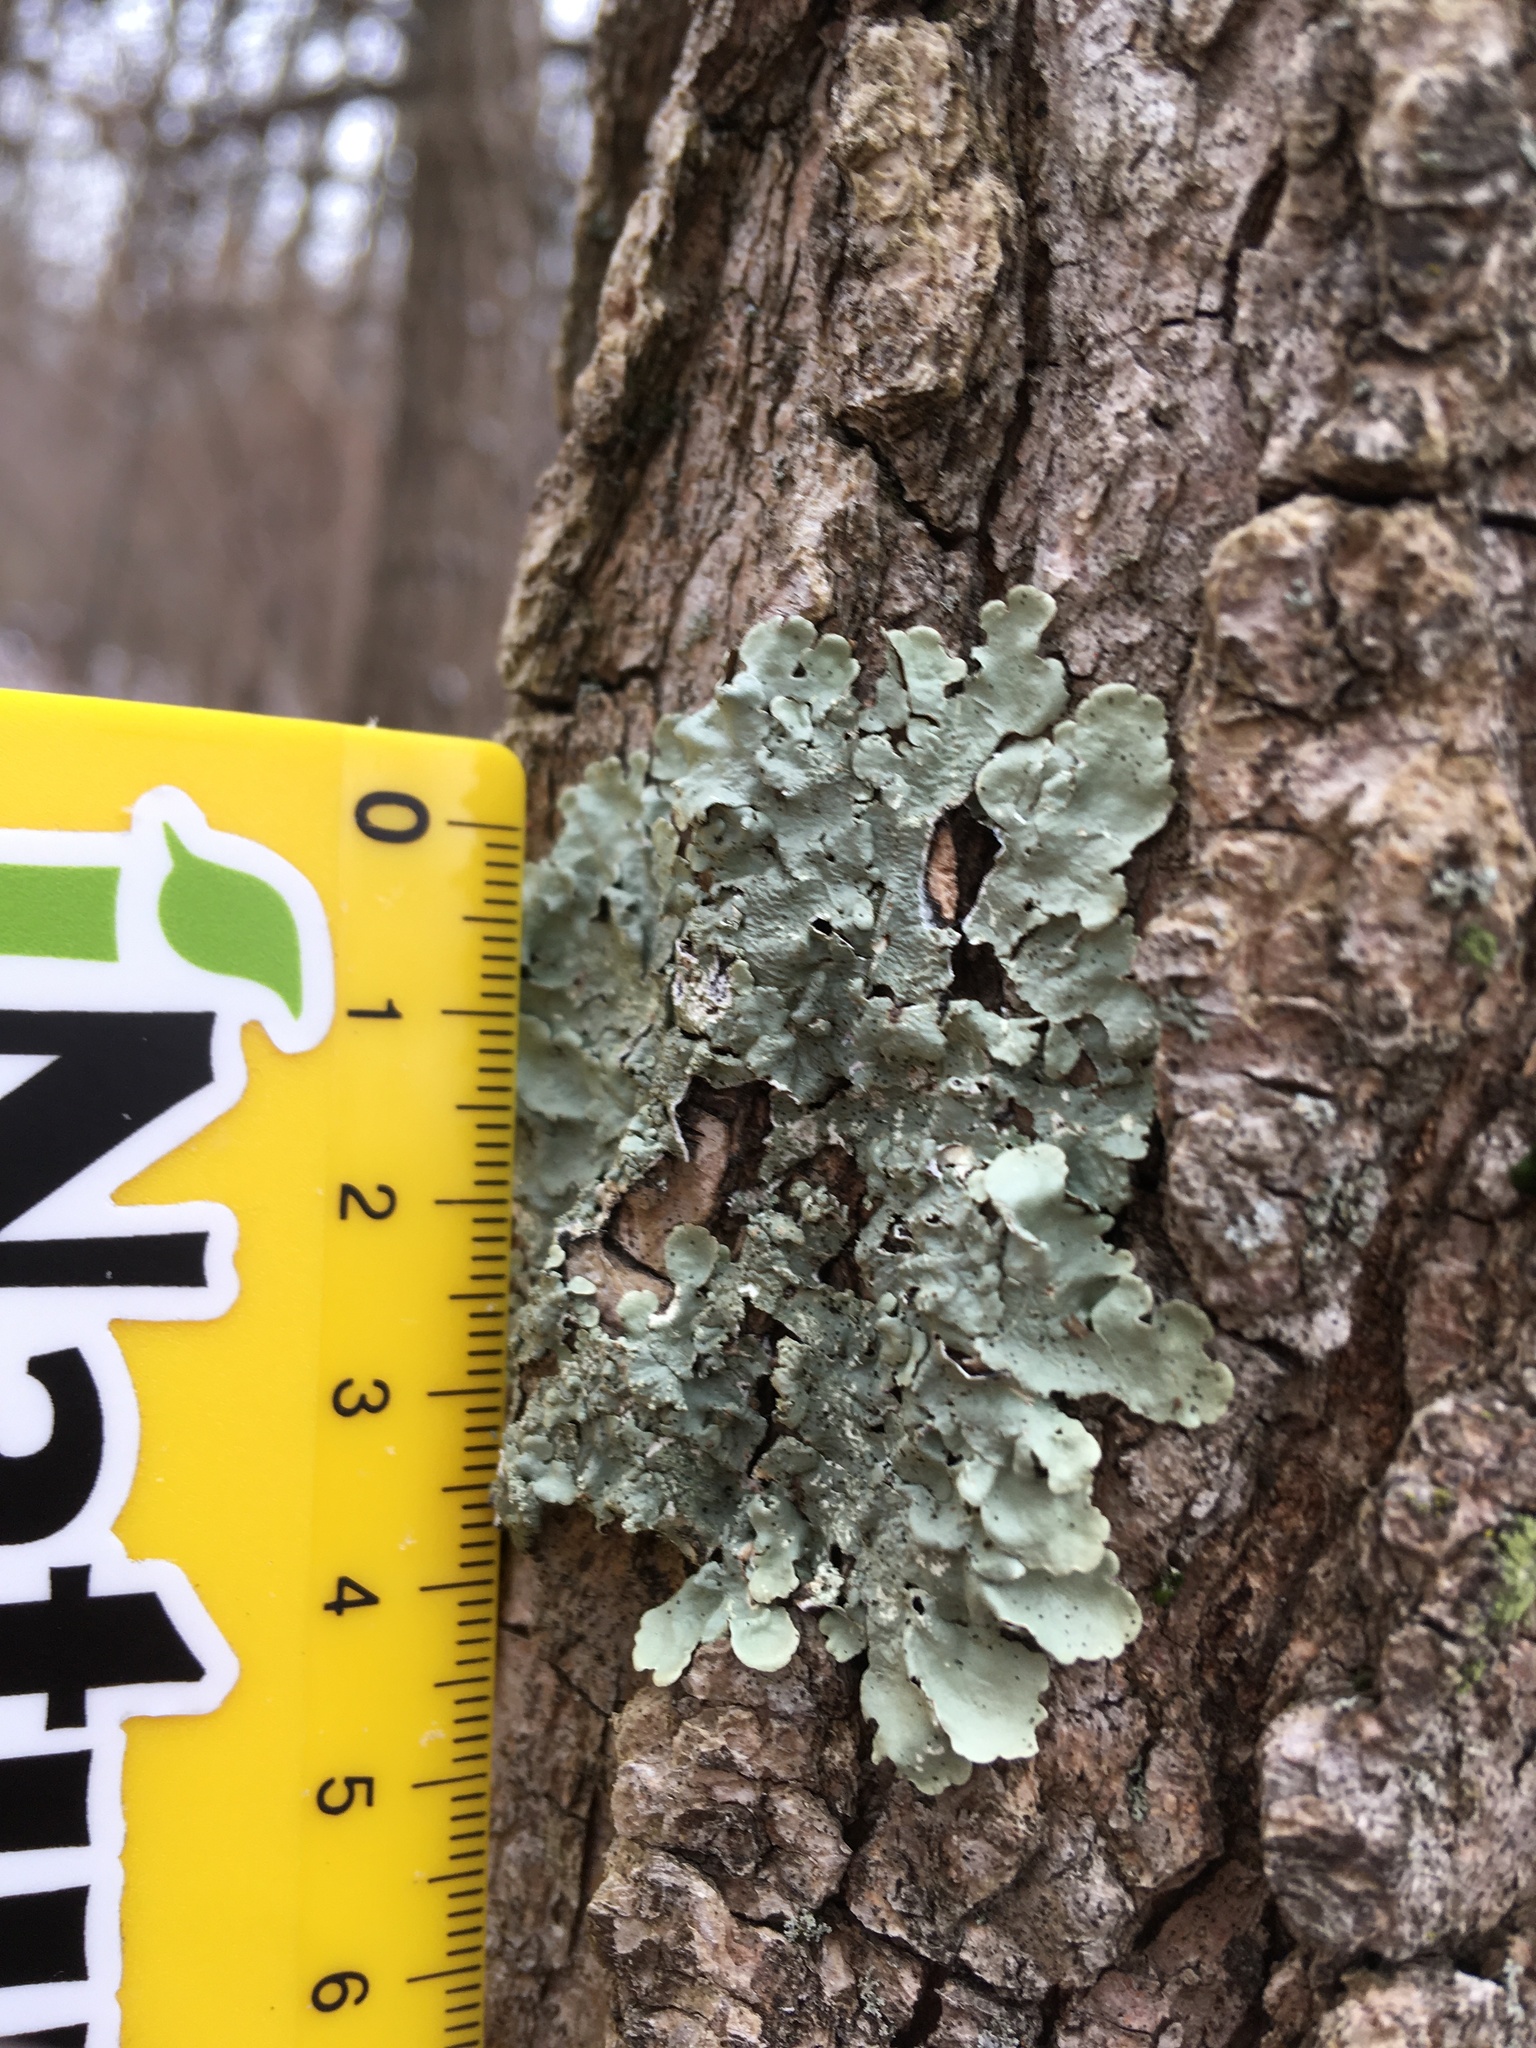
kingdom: Fungi
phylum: Ascomycota
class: Lecanoromycetes
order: Lecanorales
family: Parmeliaceae
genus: Flavoparmelia
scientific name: Flavoparmelia caperata
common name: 40-mile per hour lichen
